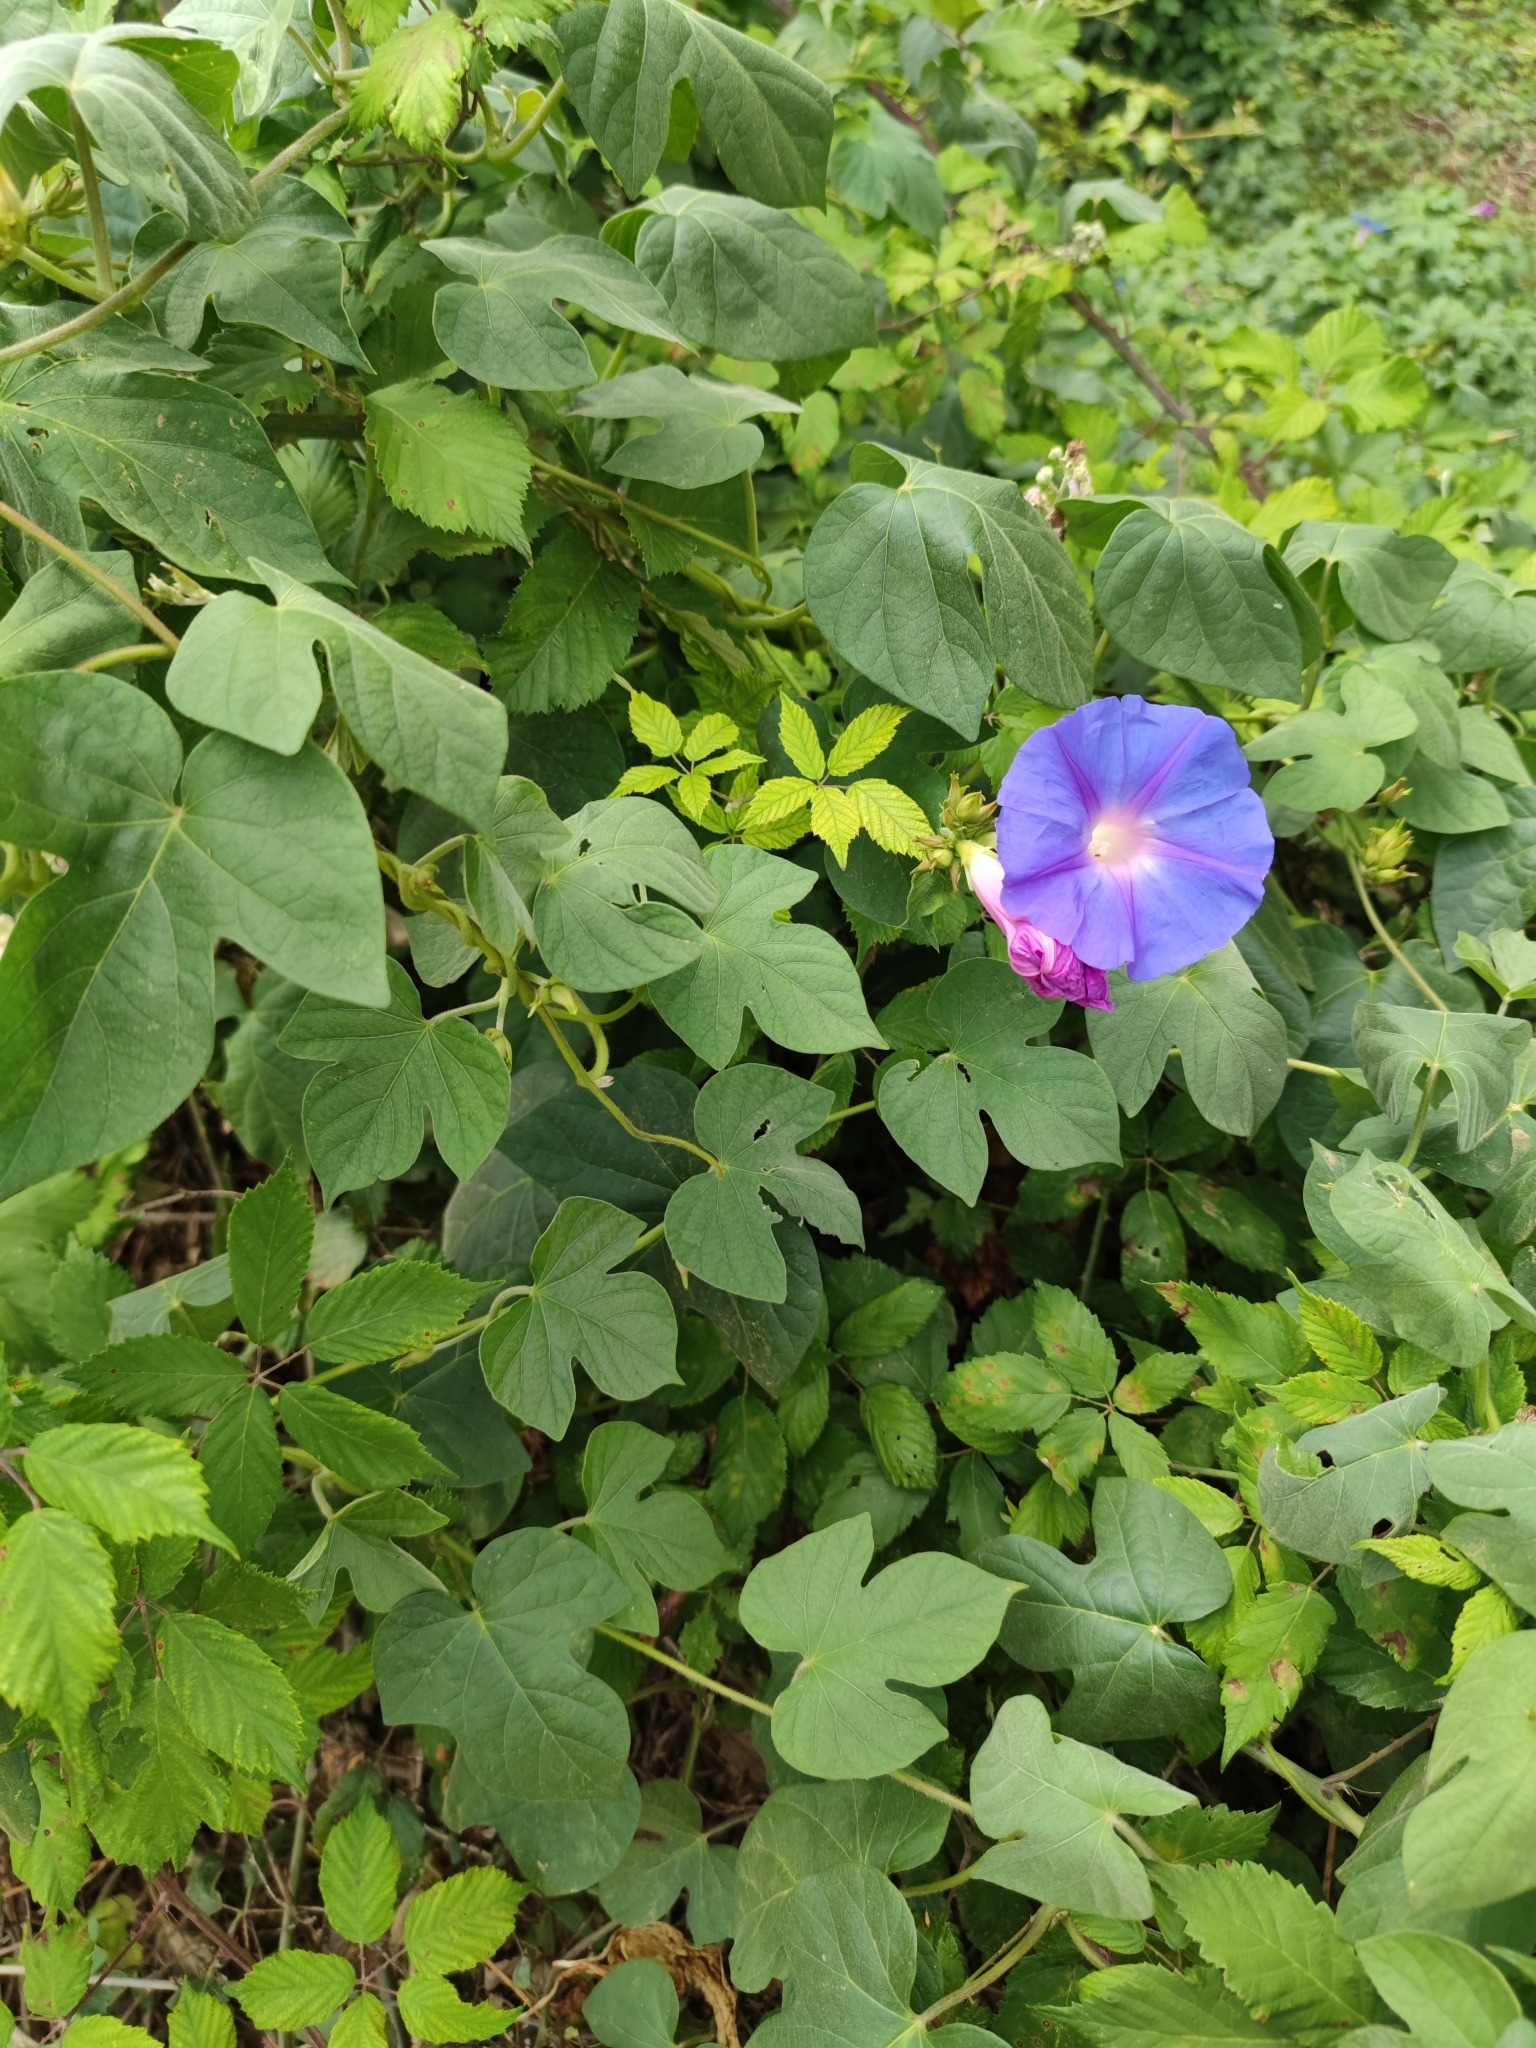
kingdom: Plantae
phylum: Tracheophyta
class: Magnoliopsida
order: Solanales
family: Convolvulaceae
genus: Ipomoea
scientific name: Ipomoea indica
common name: Blue dawnflower
